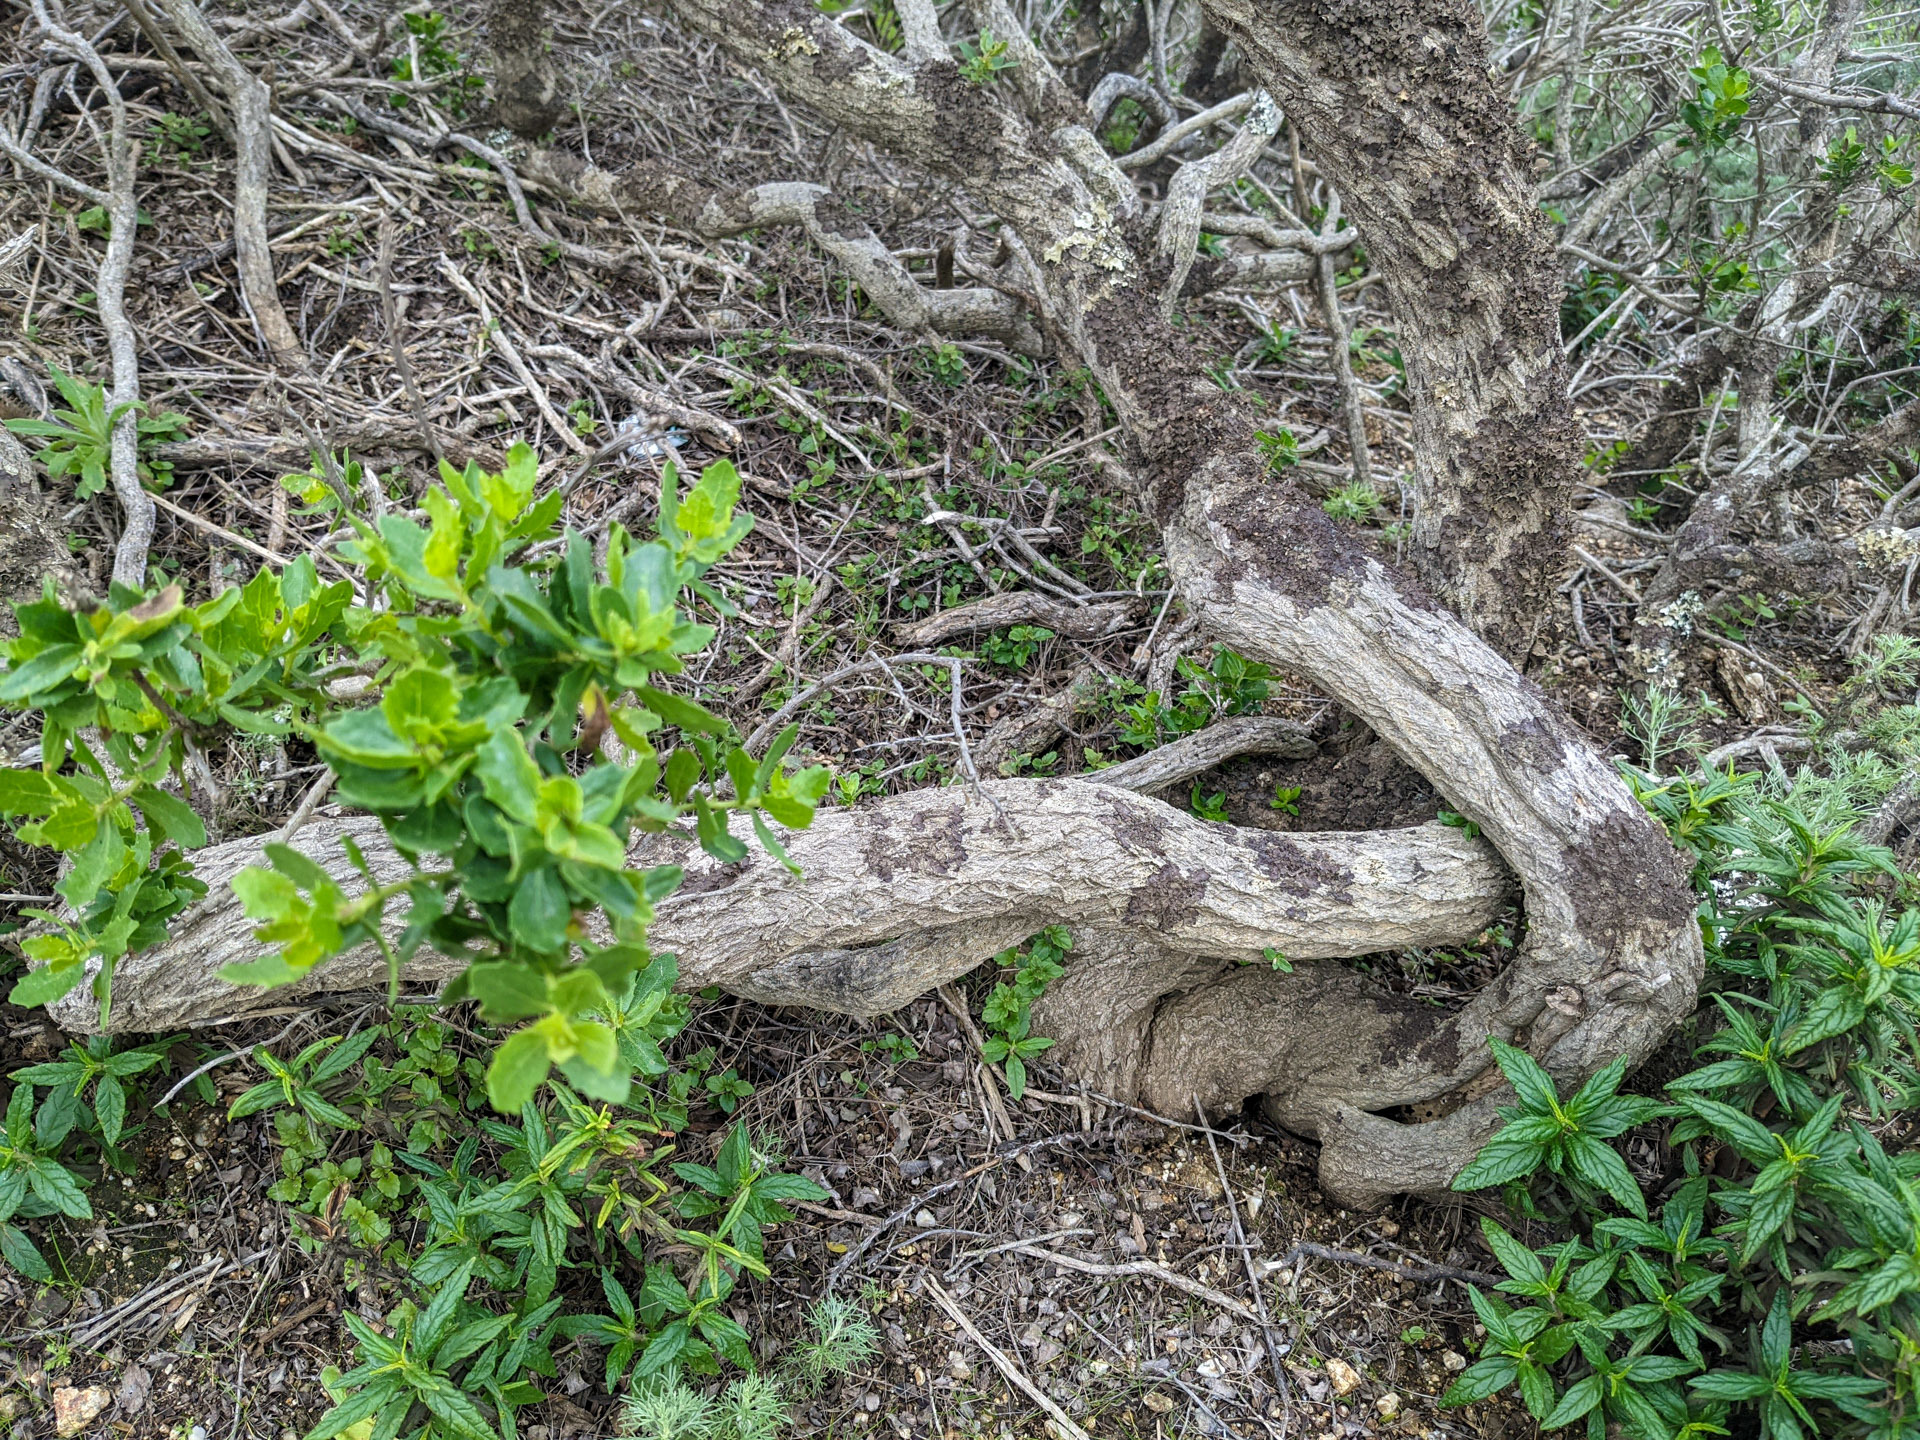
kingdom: Plantae
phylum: Tracheophyta
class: Magnoliopsida
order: Asterales
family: Asteraceae
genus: Baccharis
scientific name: Baccharis pilularis
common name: Coyotebrush
